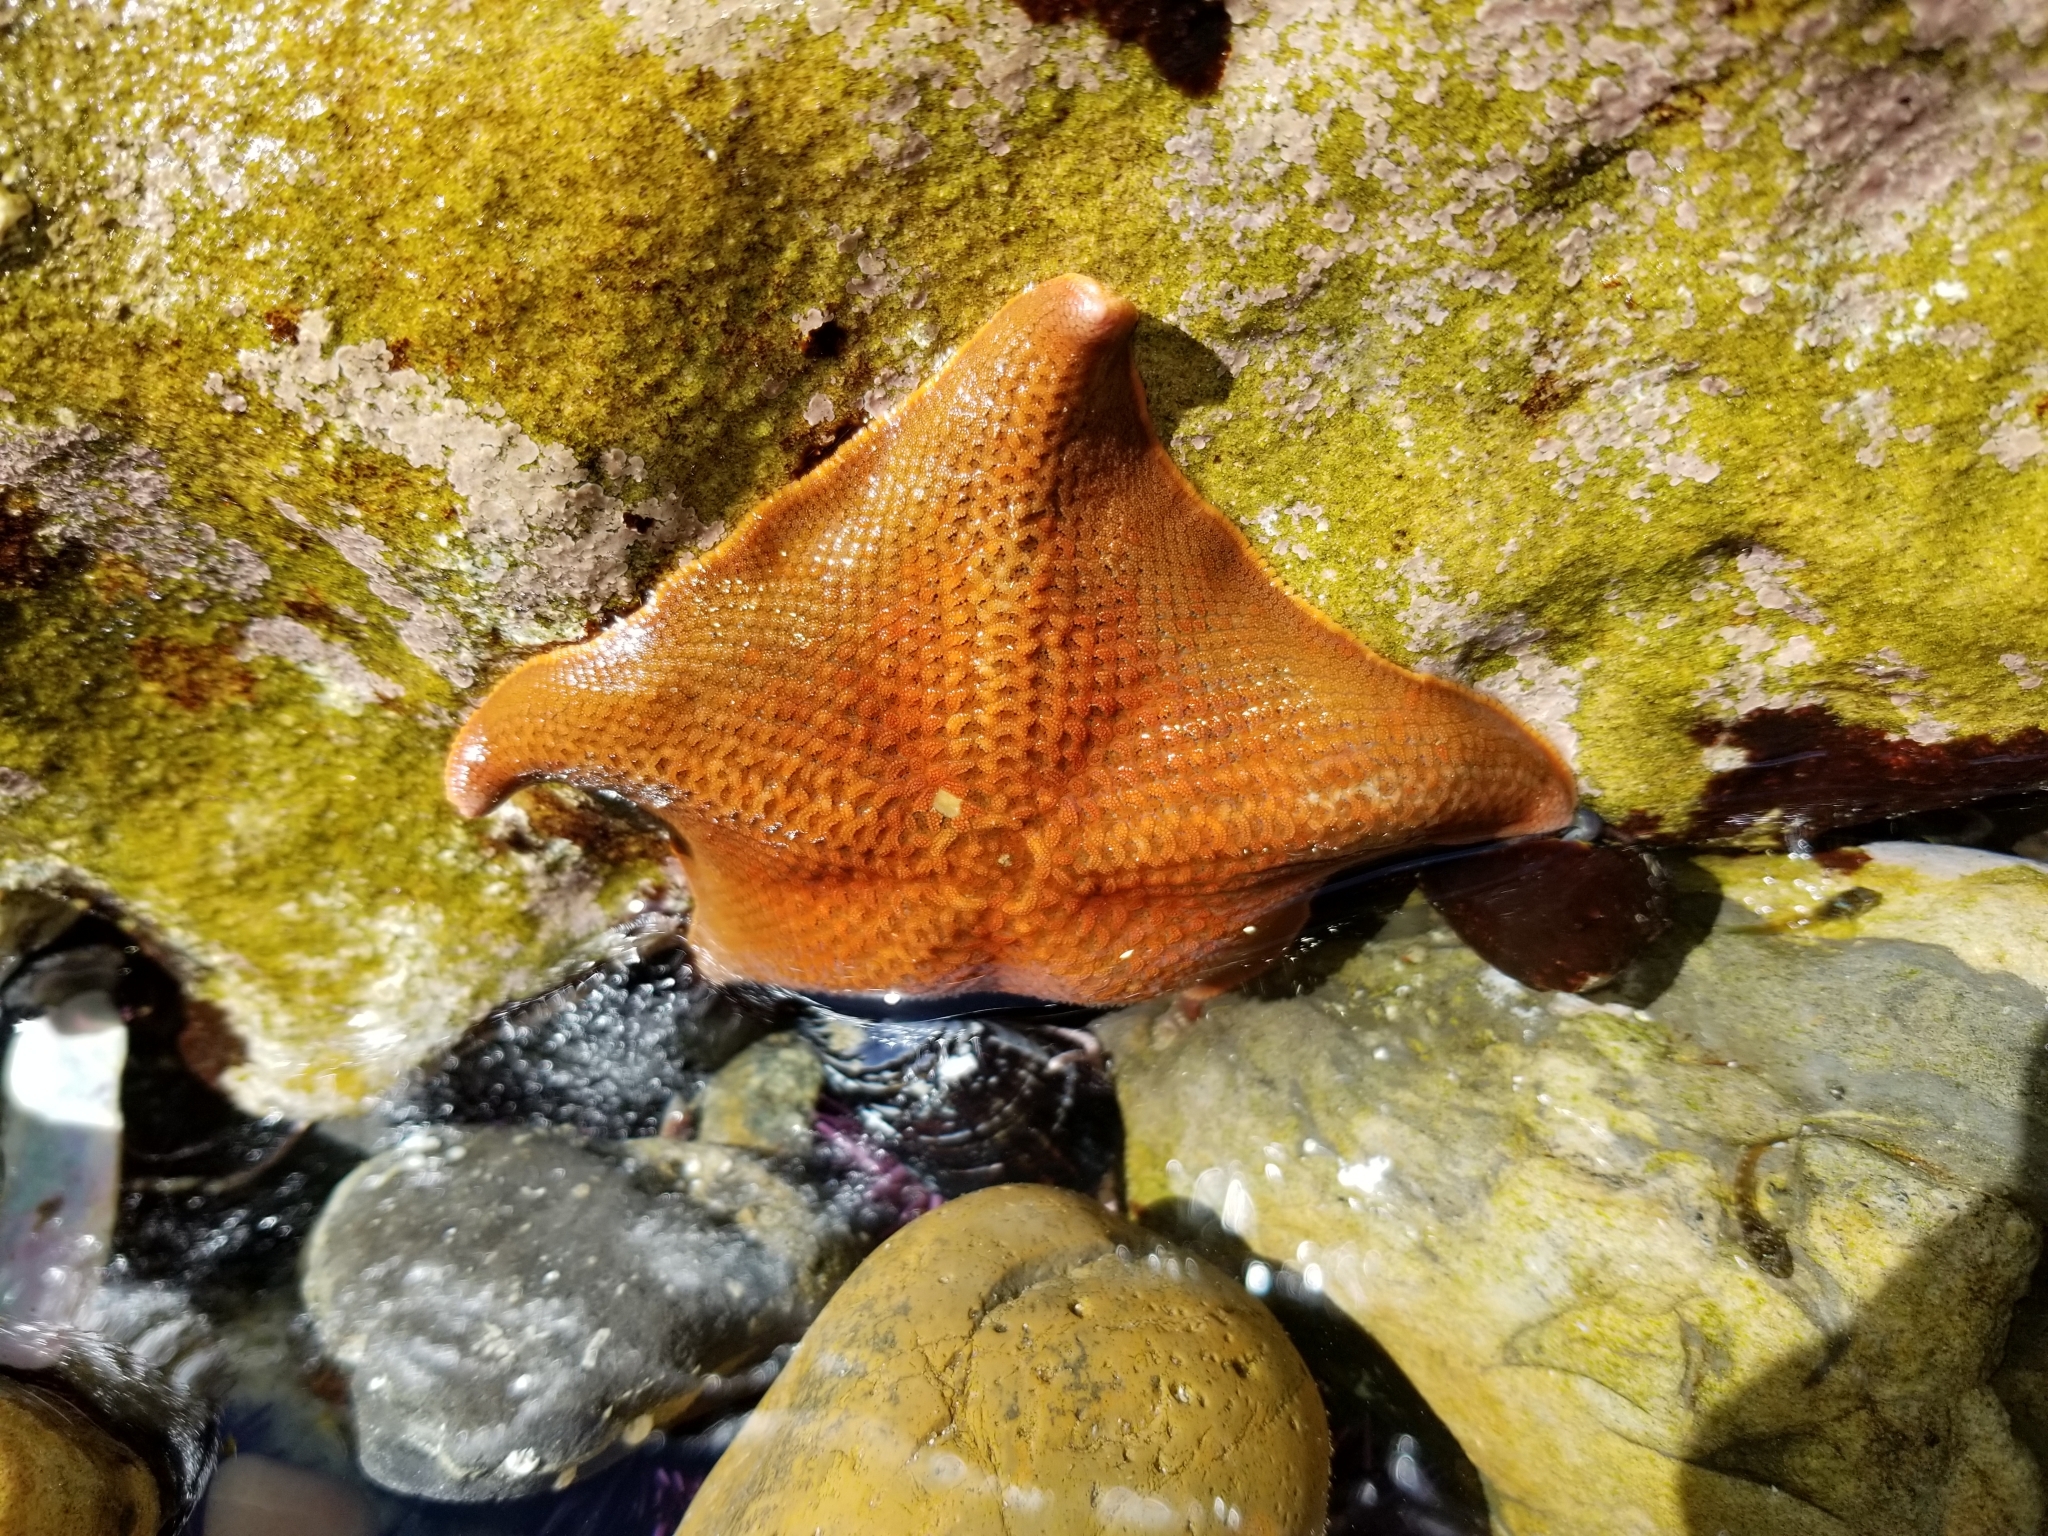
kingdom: Animalia
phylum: Echinodermata
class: Asteroidea
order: Valvatida
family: Asterinidae
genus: Patiria
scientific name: Patiria miniata
